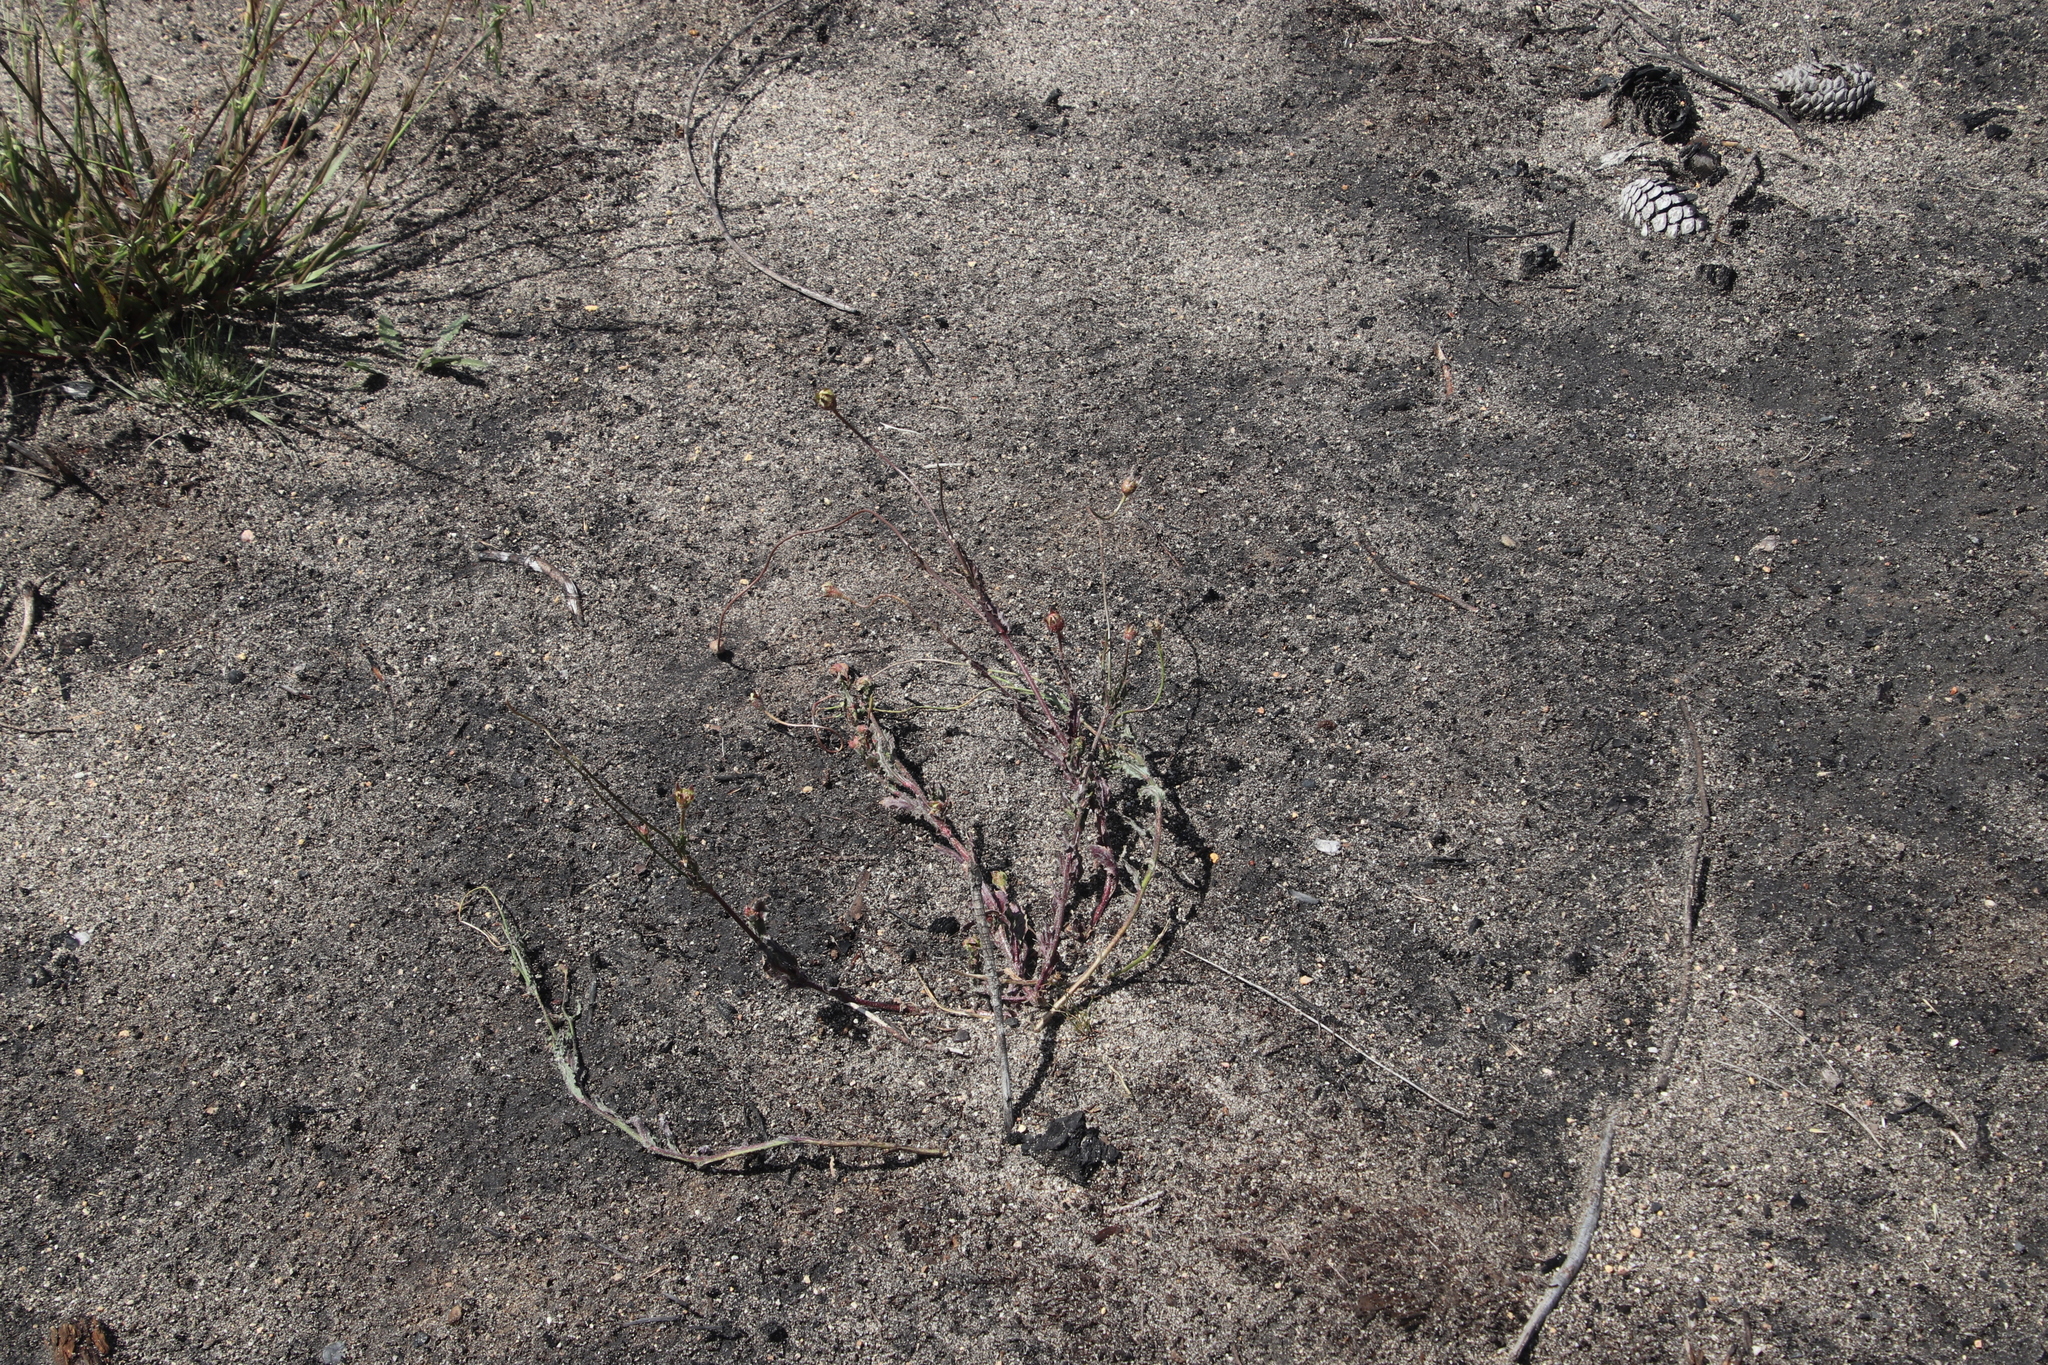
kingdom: Plantae
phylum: Tracheophyta
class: Magnoliopsida
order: Asterales
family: Campanulaceae
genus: Wahlenbergia
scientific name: Wahlenbergia capensis
